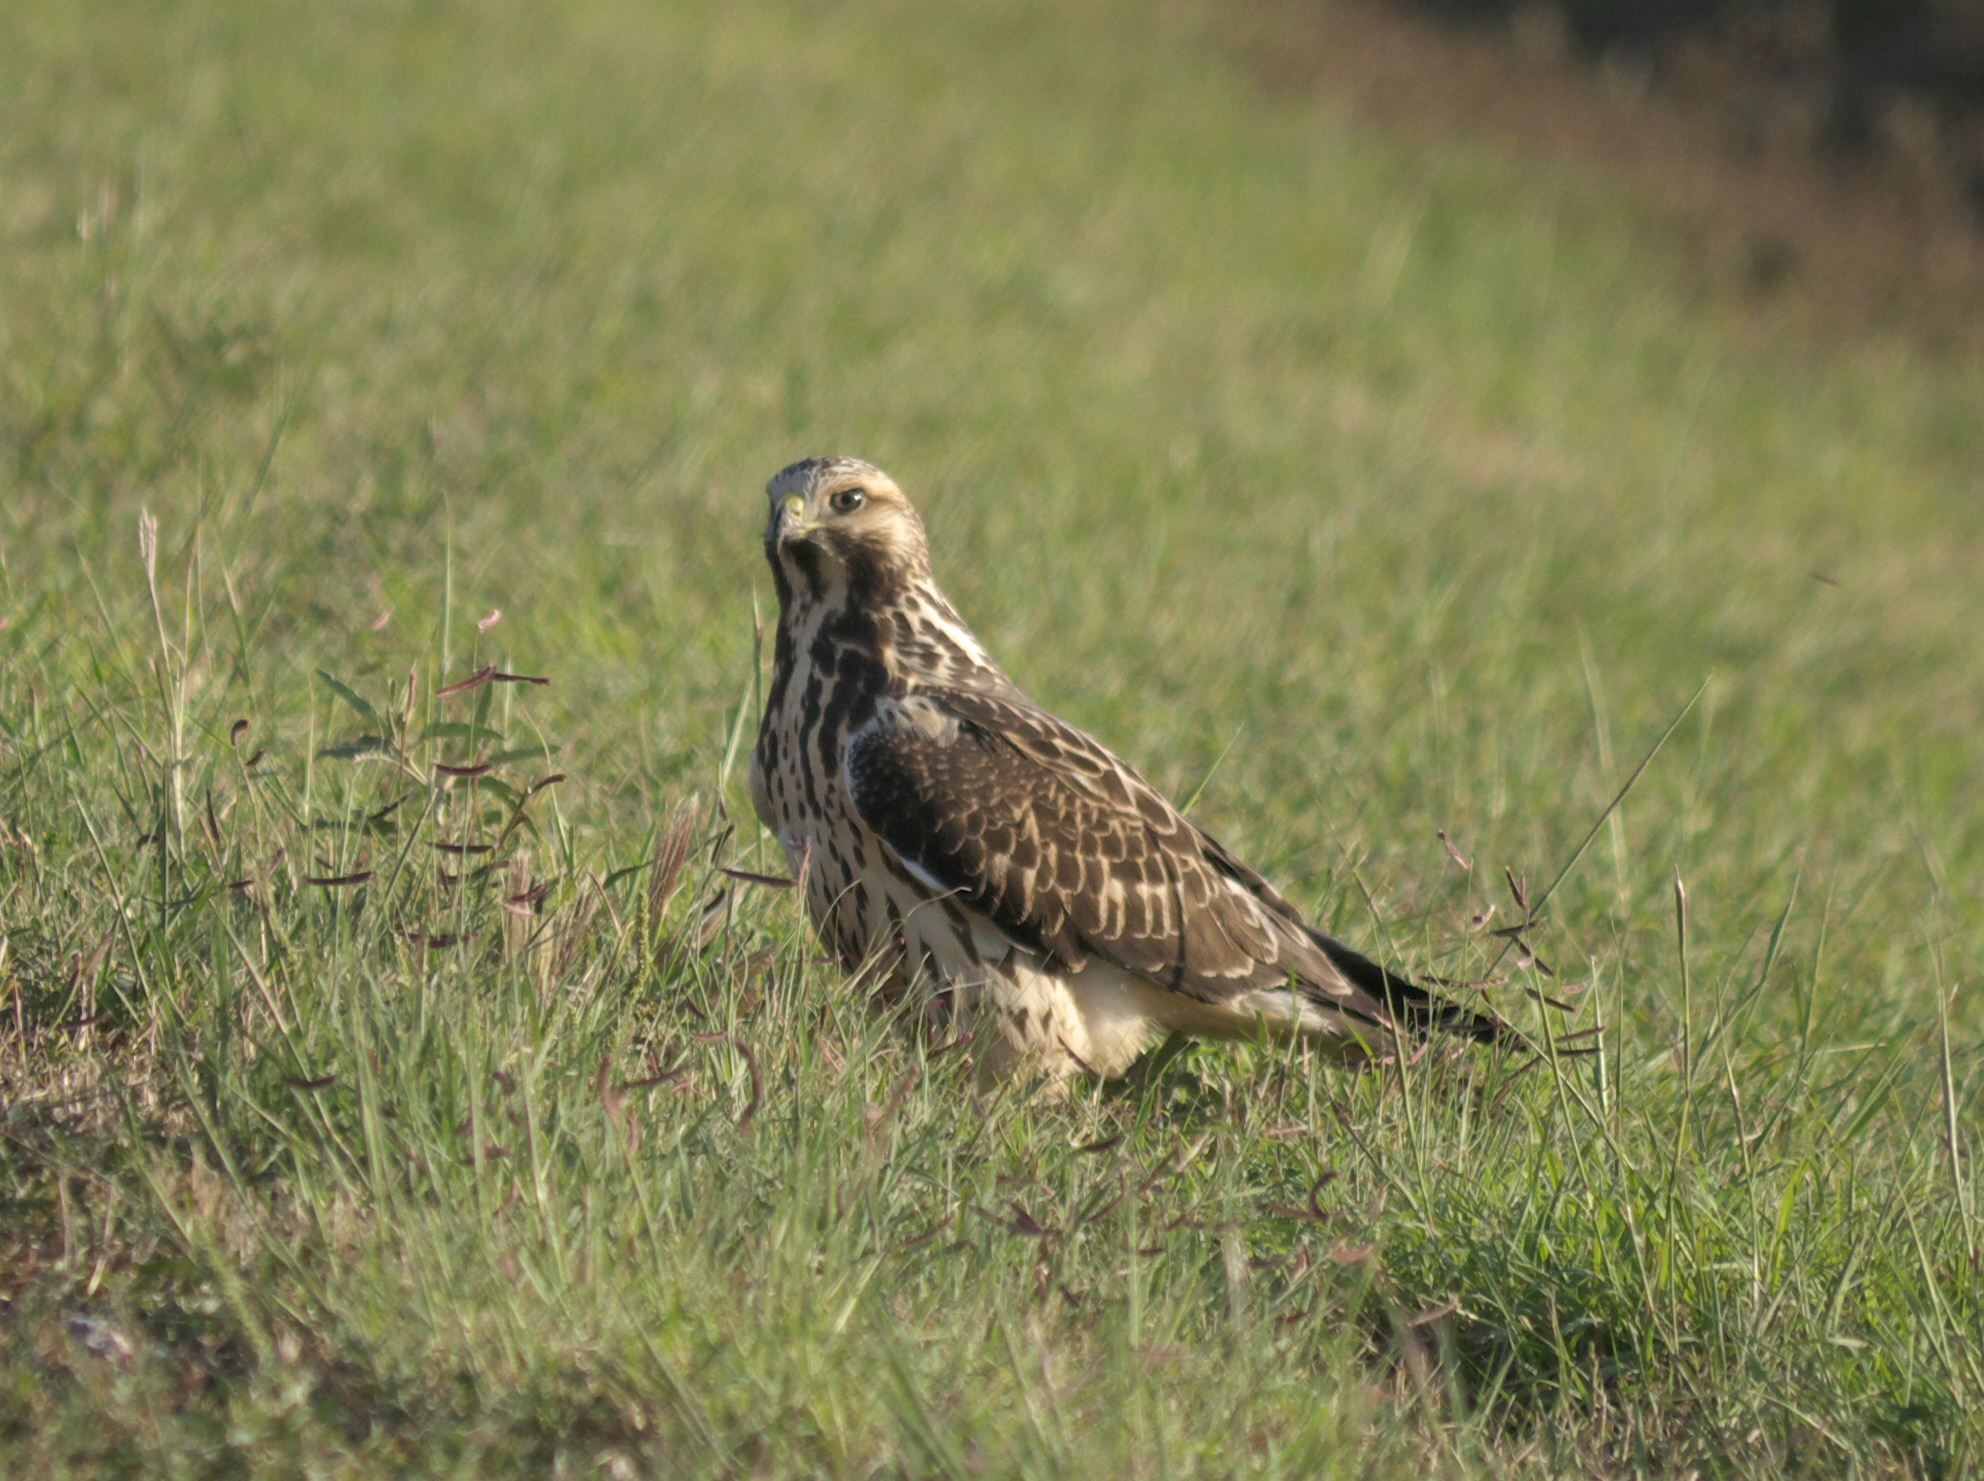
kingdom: Animalia
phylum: Chordata
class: Aves
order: Accipitriformes
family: Accipitridae
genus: Buteo
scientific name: Buteo swainsoni
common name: Swainson's hawk
